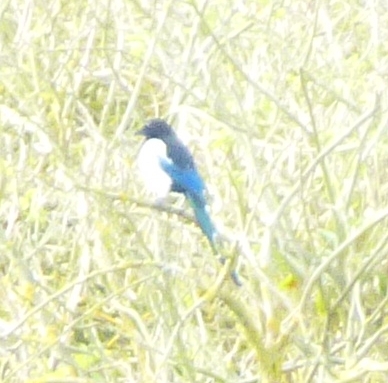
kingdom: Animalia
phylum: Chordata
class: Aves
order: Passeriformes
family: Corvidae
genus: Pica
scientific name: Pica pica
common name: Eurasian magpie
